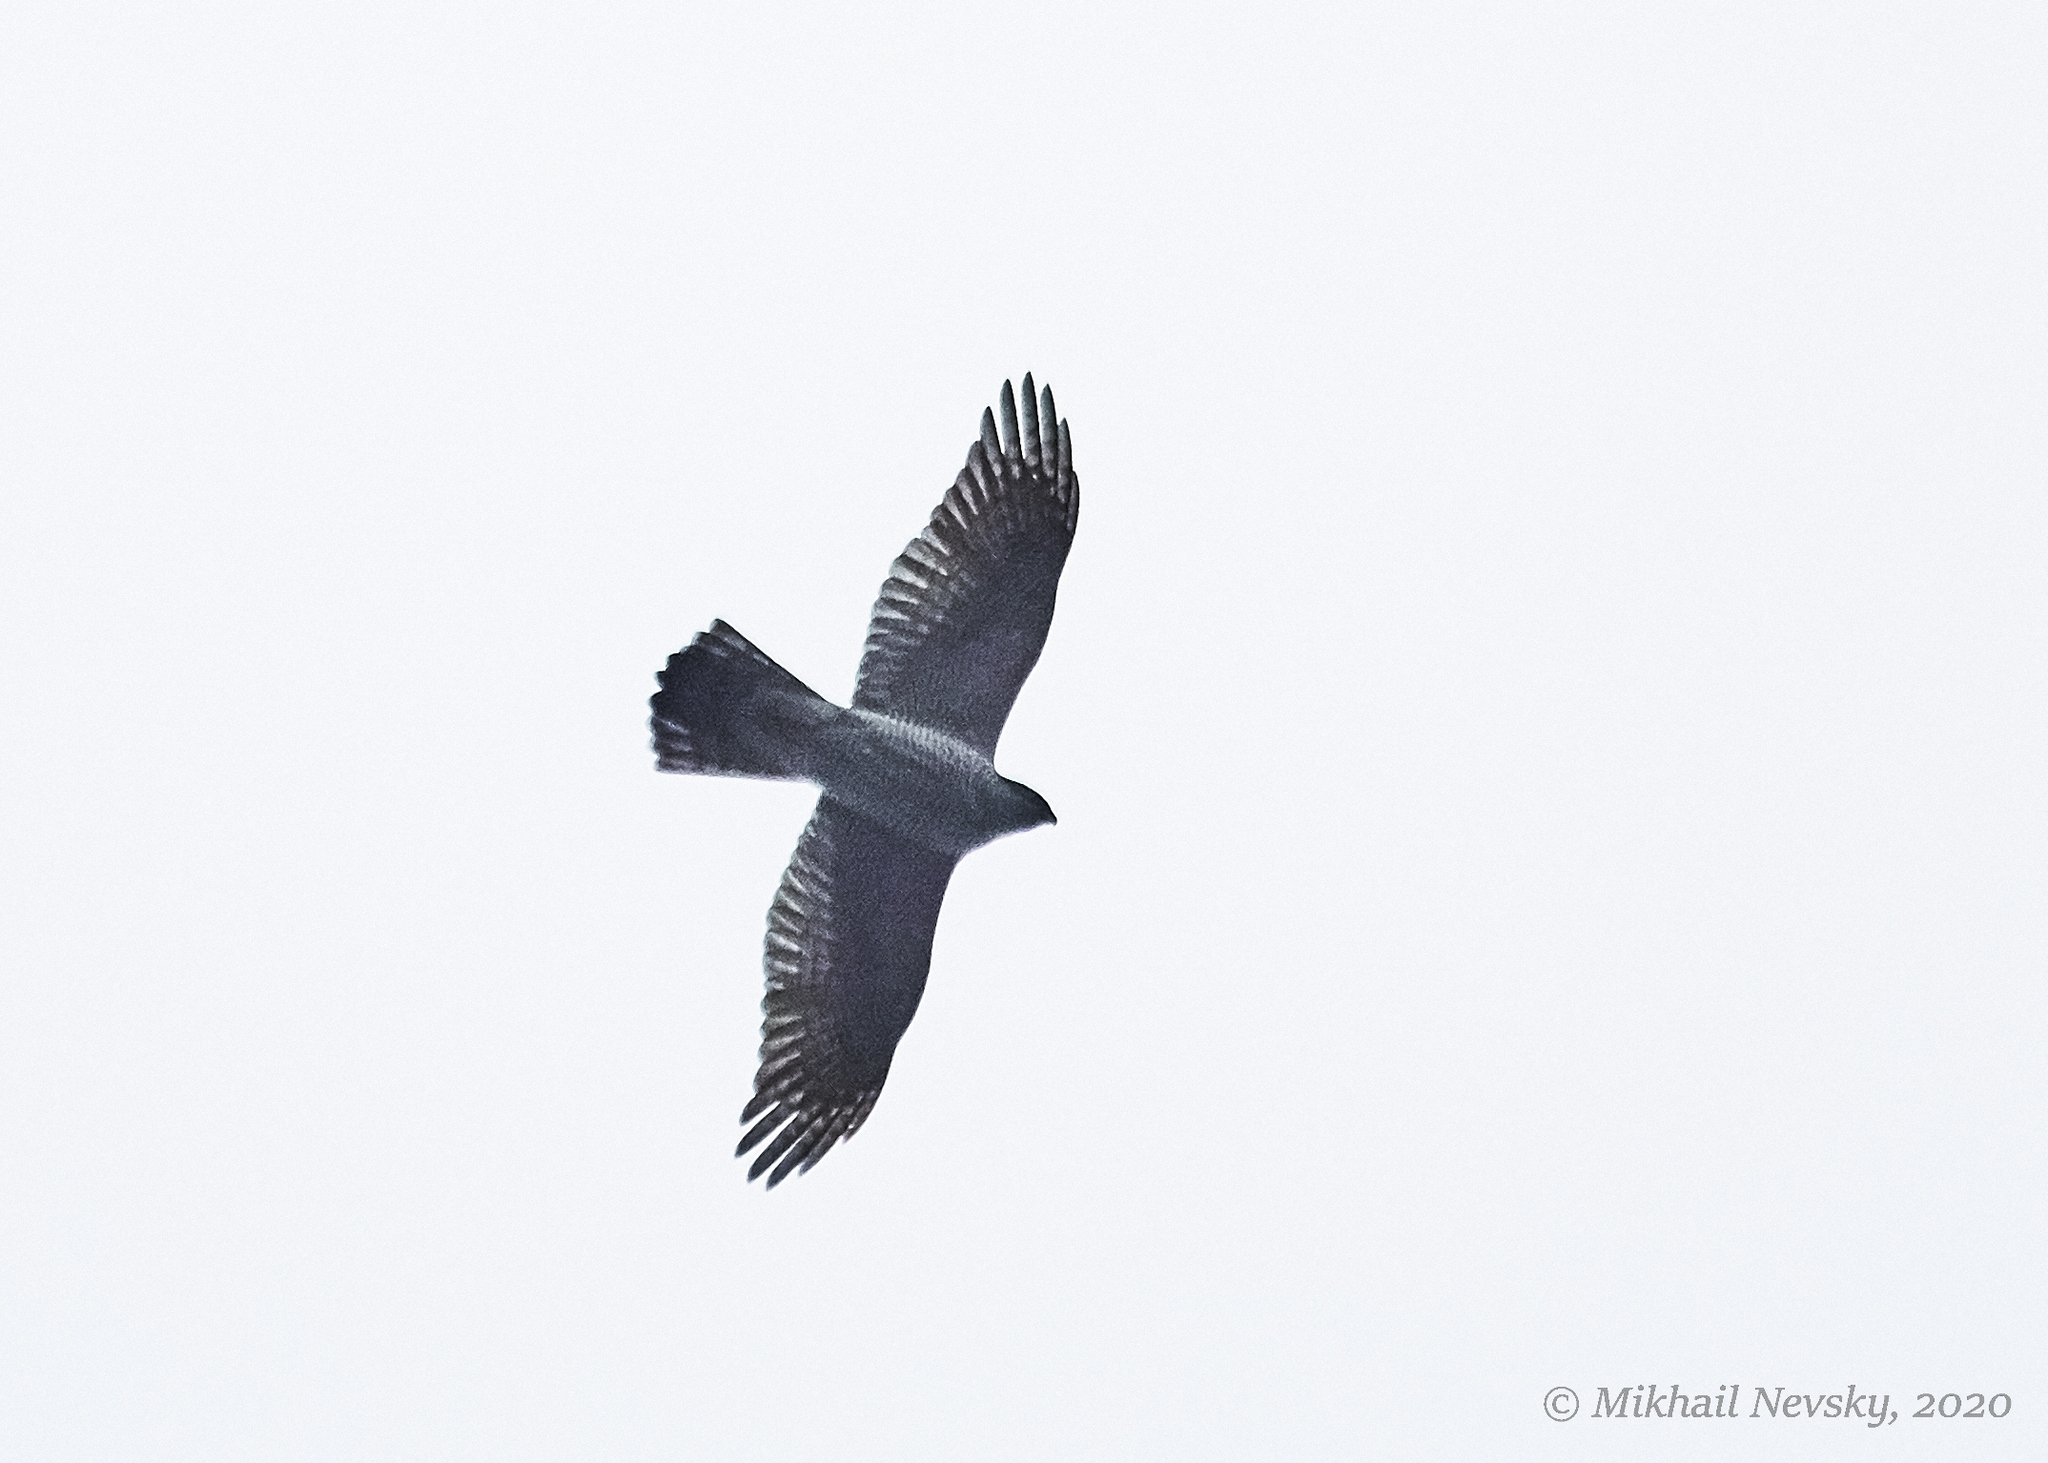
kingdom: Animalia
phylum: Chordata
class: Aves
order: Accipitriformes
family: Accipitridae
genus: Accipiter
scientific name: Accipiter gentilis
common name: Northern goshawk
